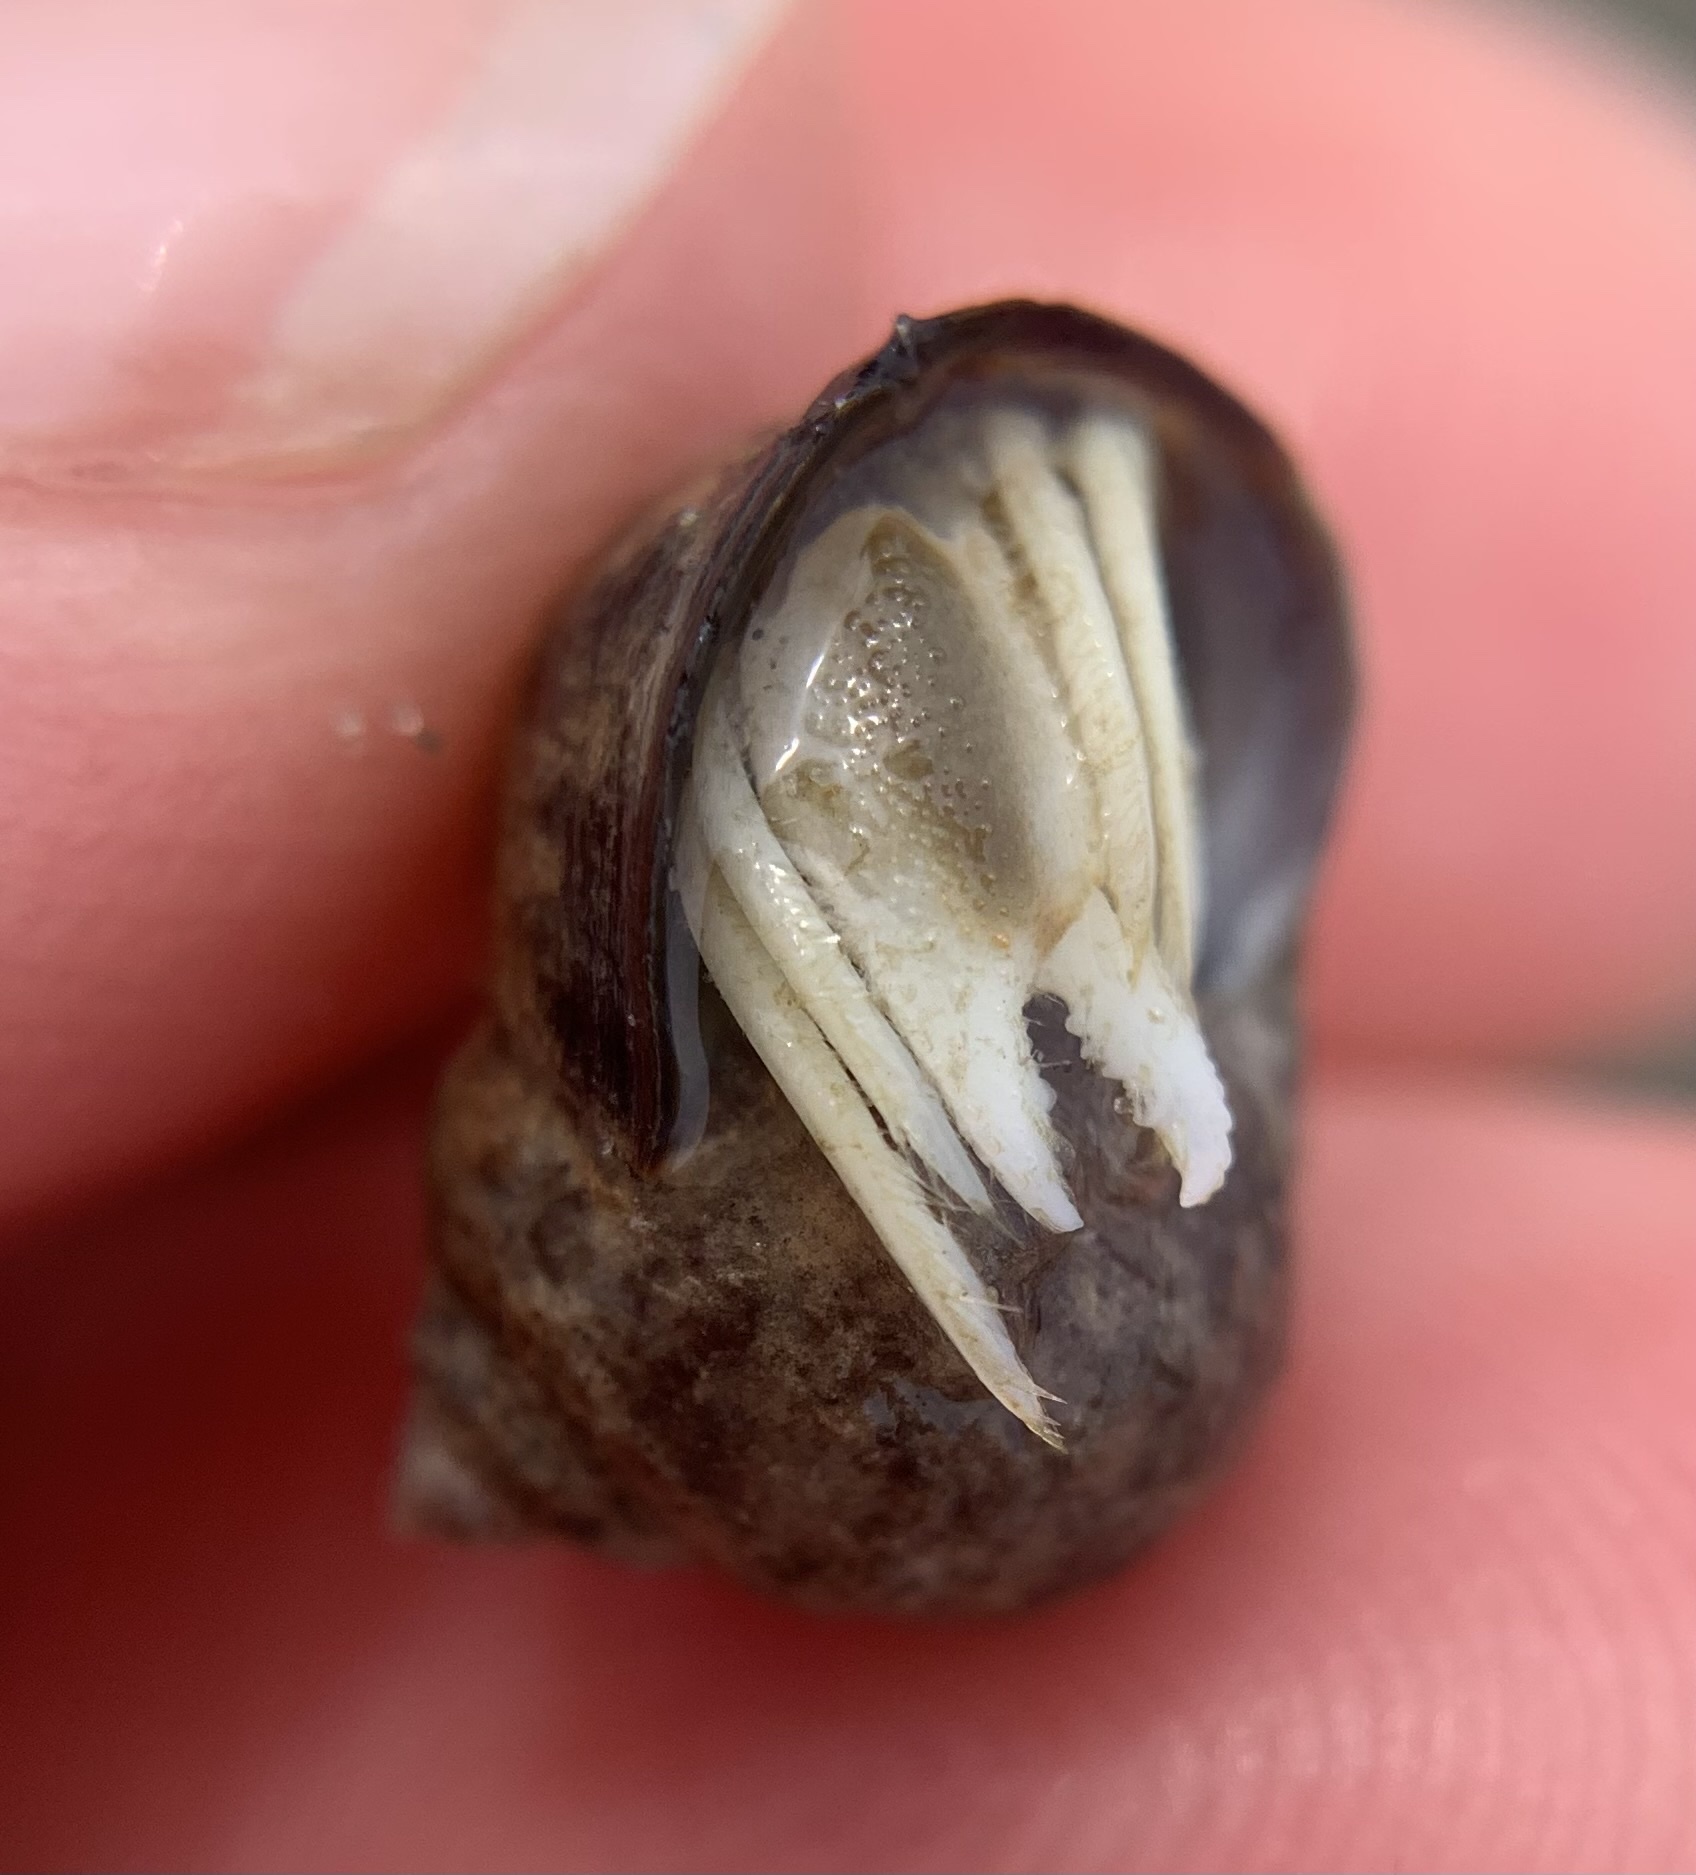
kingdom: Animalia
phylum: Arthropoda
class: Malacostraca
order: Decapoda
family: Paguridae
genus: Pagurus
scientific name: Pagurus longicarpus
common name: Long-armed hermit crab
